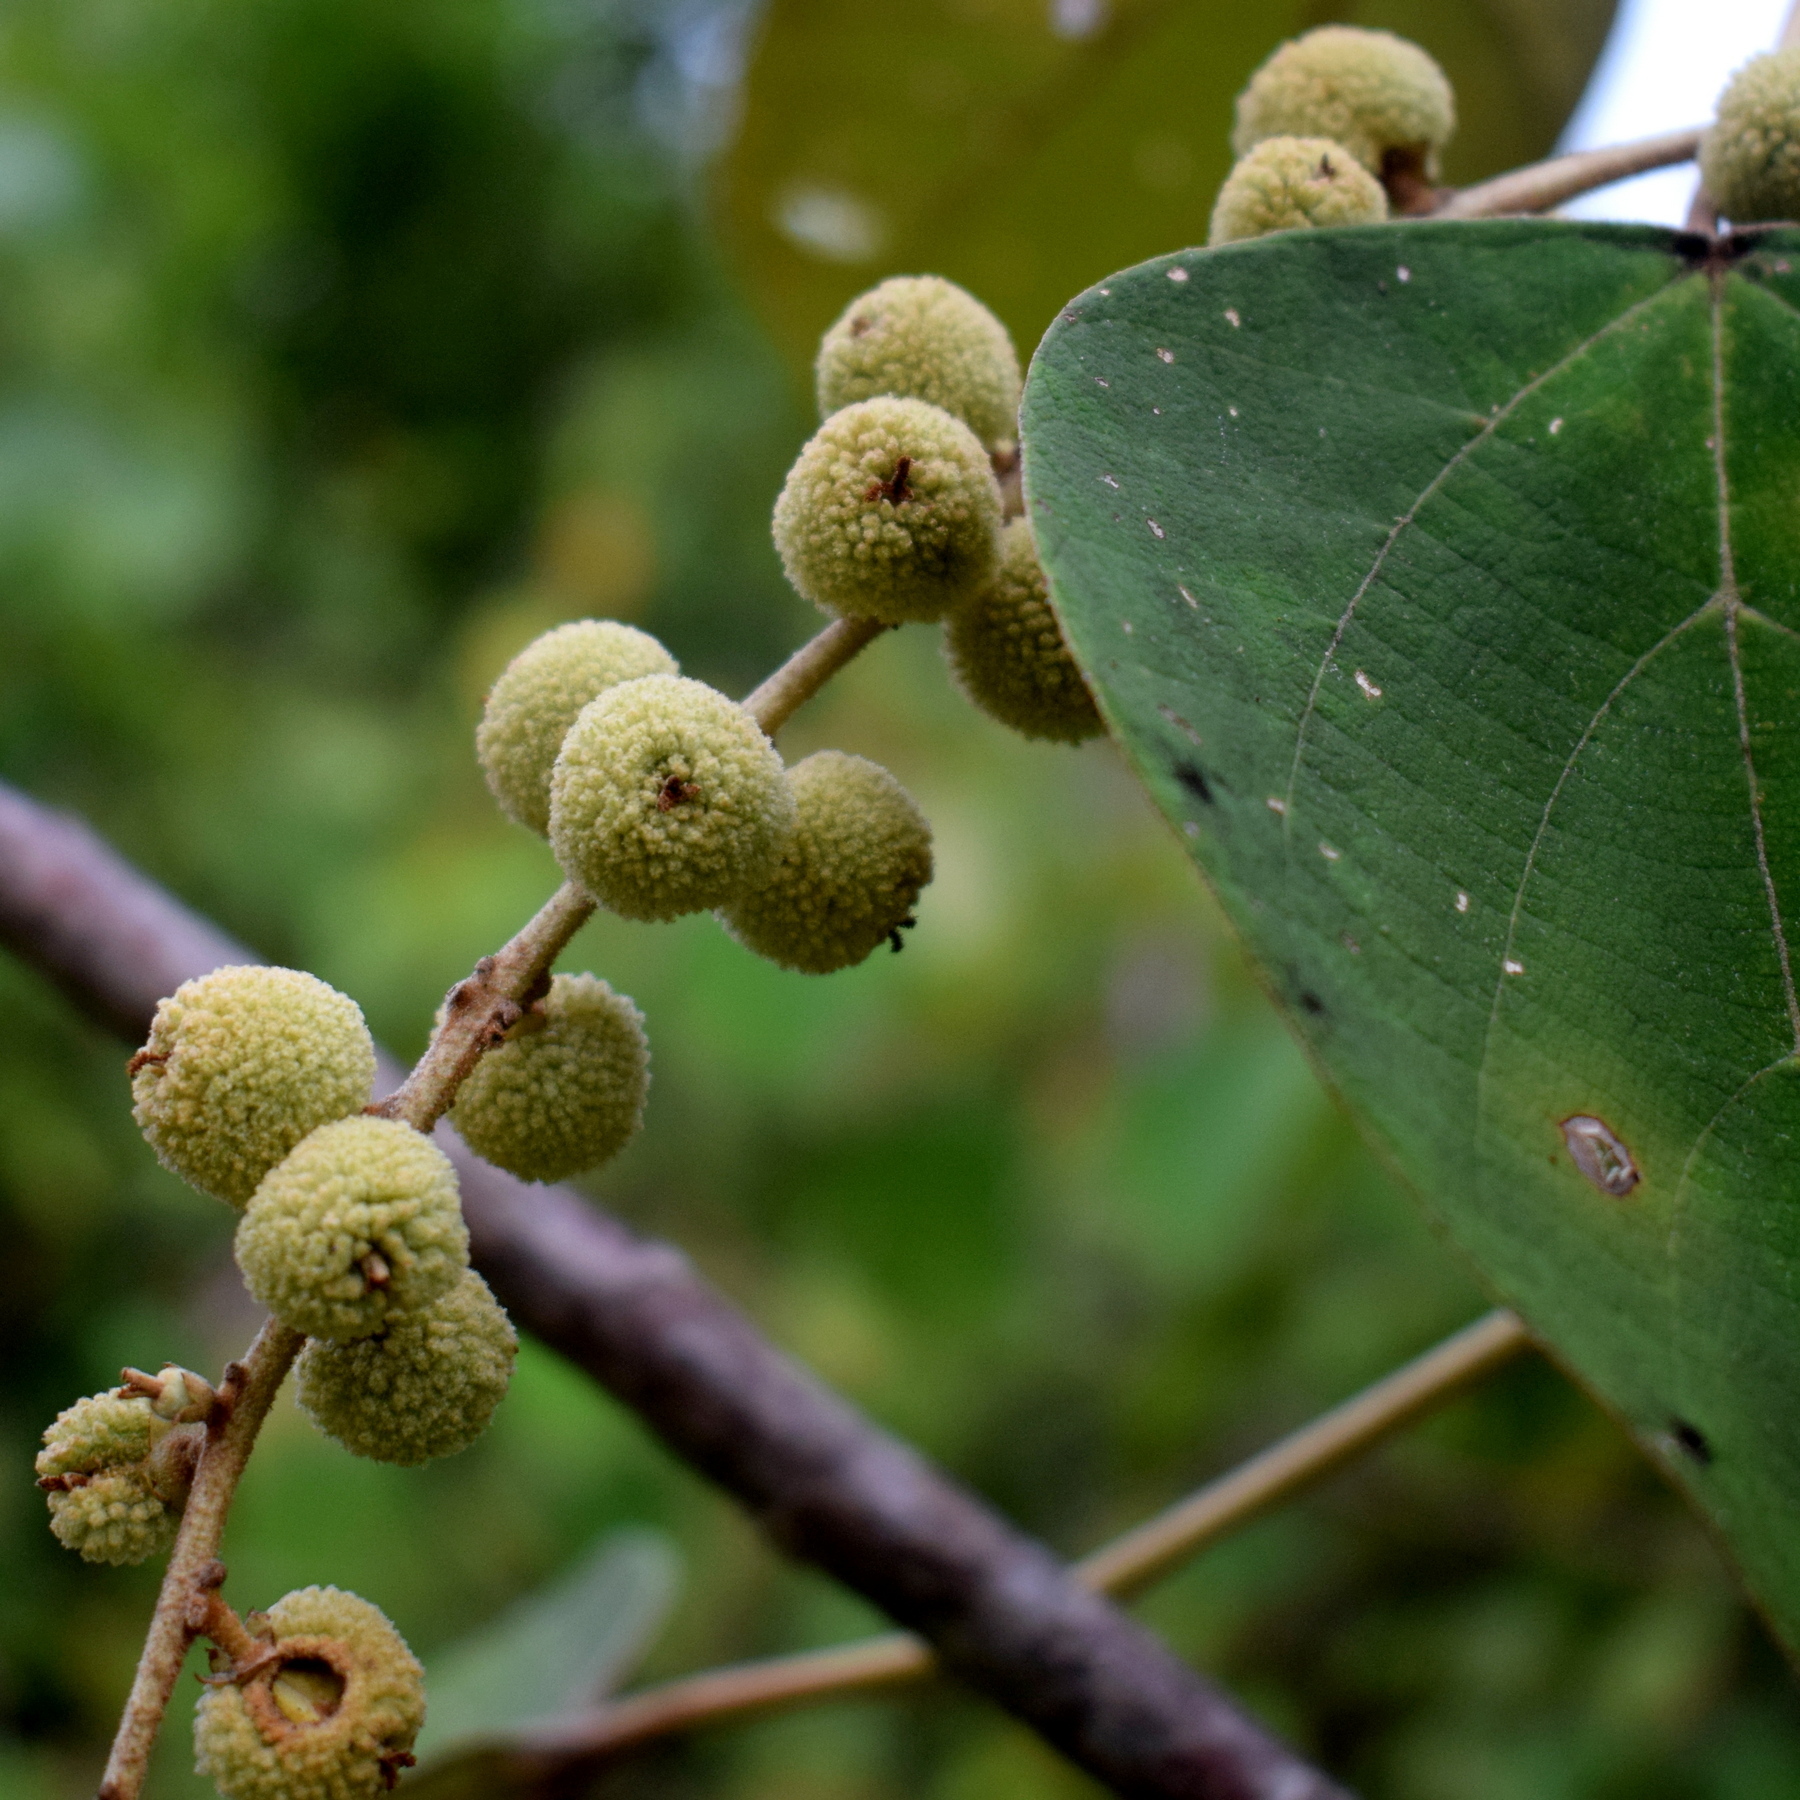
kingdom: Plantae
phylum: Tracheophyta
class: Magnoliopsida
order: Malpighiales
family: Euphorbiaceae
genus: Mallotus
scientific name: Mallotus macrostachyus
